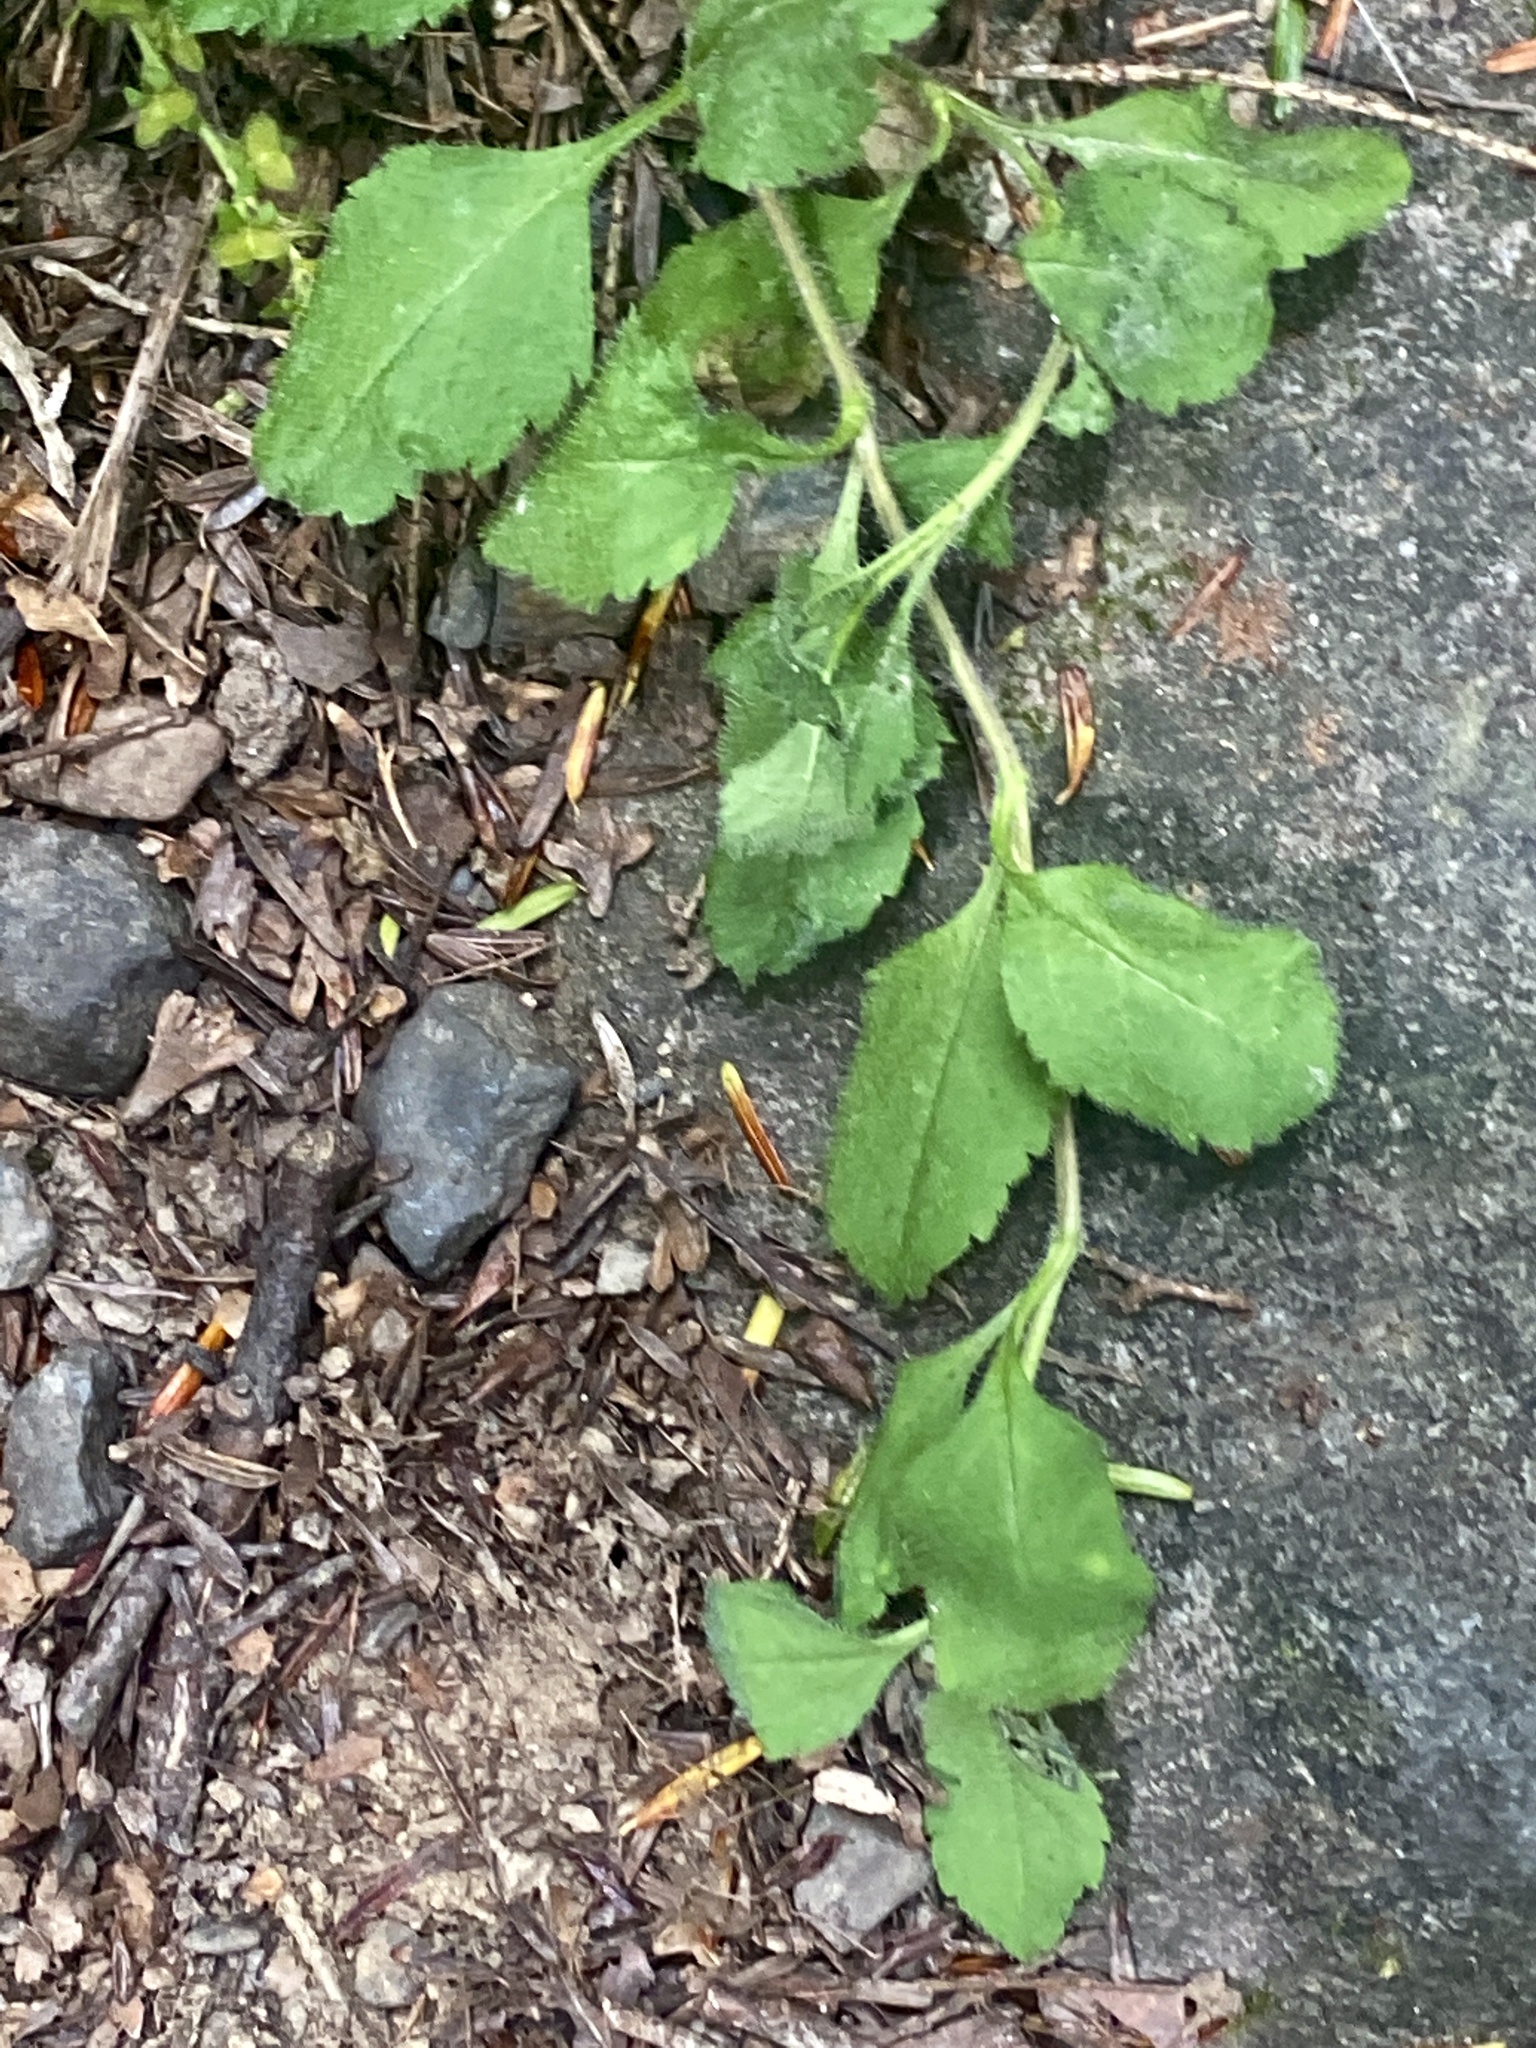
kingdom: Plantae
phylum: Tracheophyta
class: Magnoliopsida
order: Lamiales
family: Plantaginaceae
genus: Veronica
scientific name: Veronica officinalis
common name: Common speedwell
